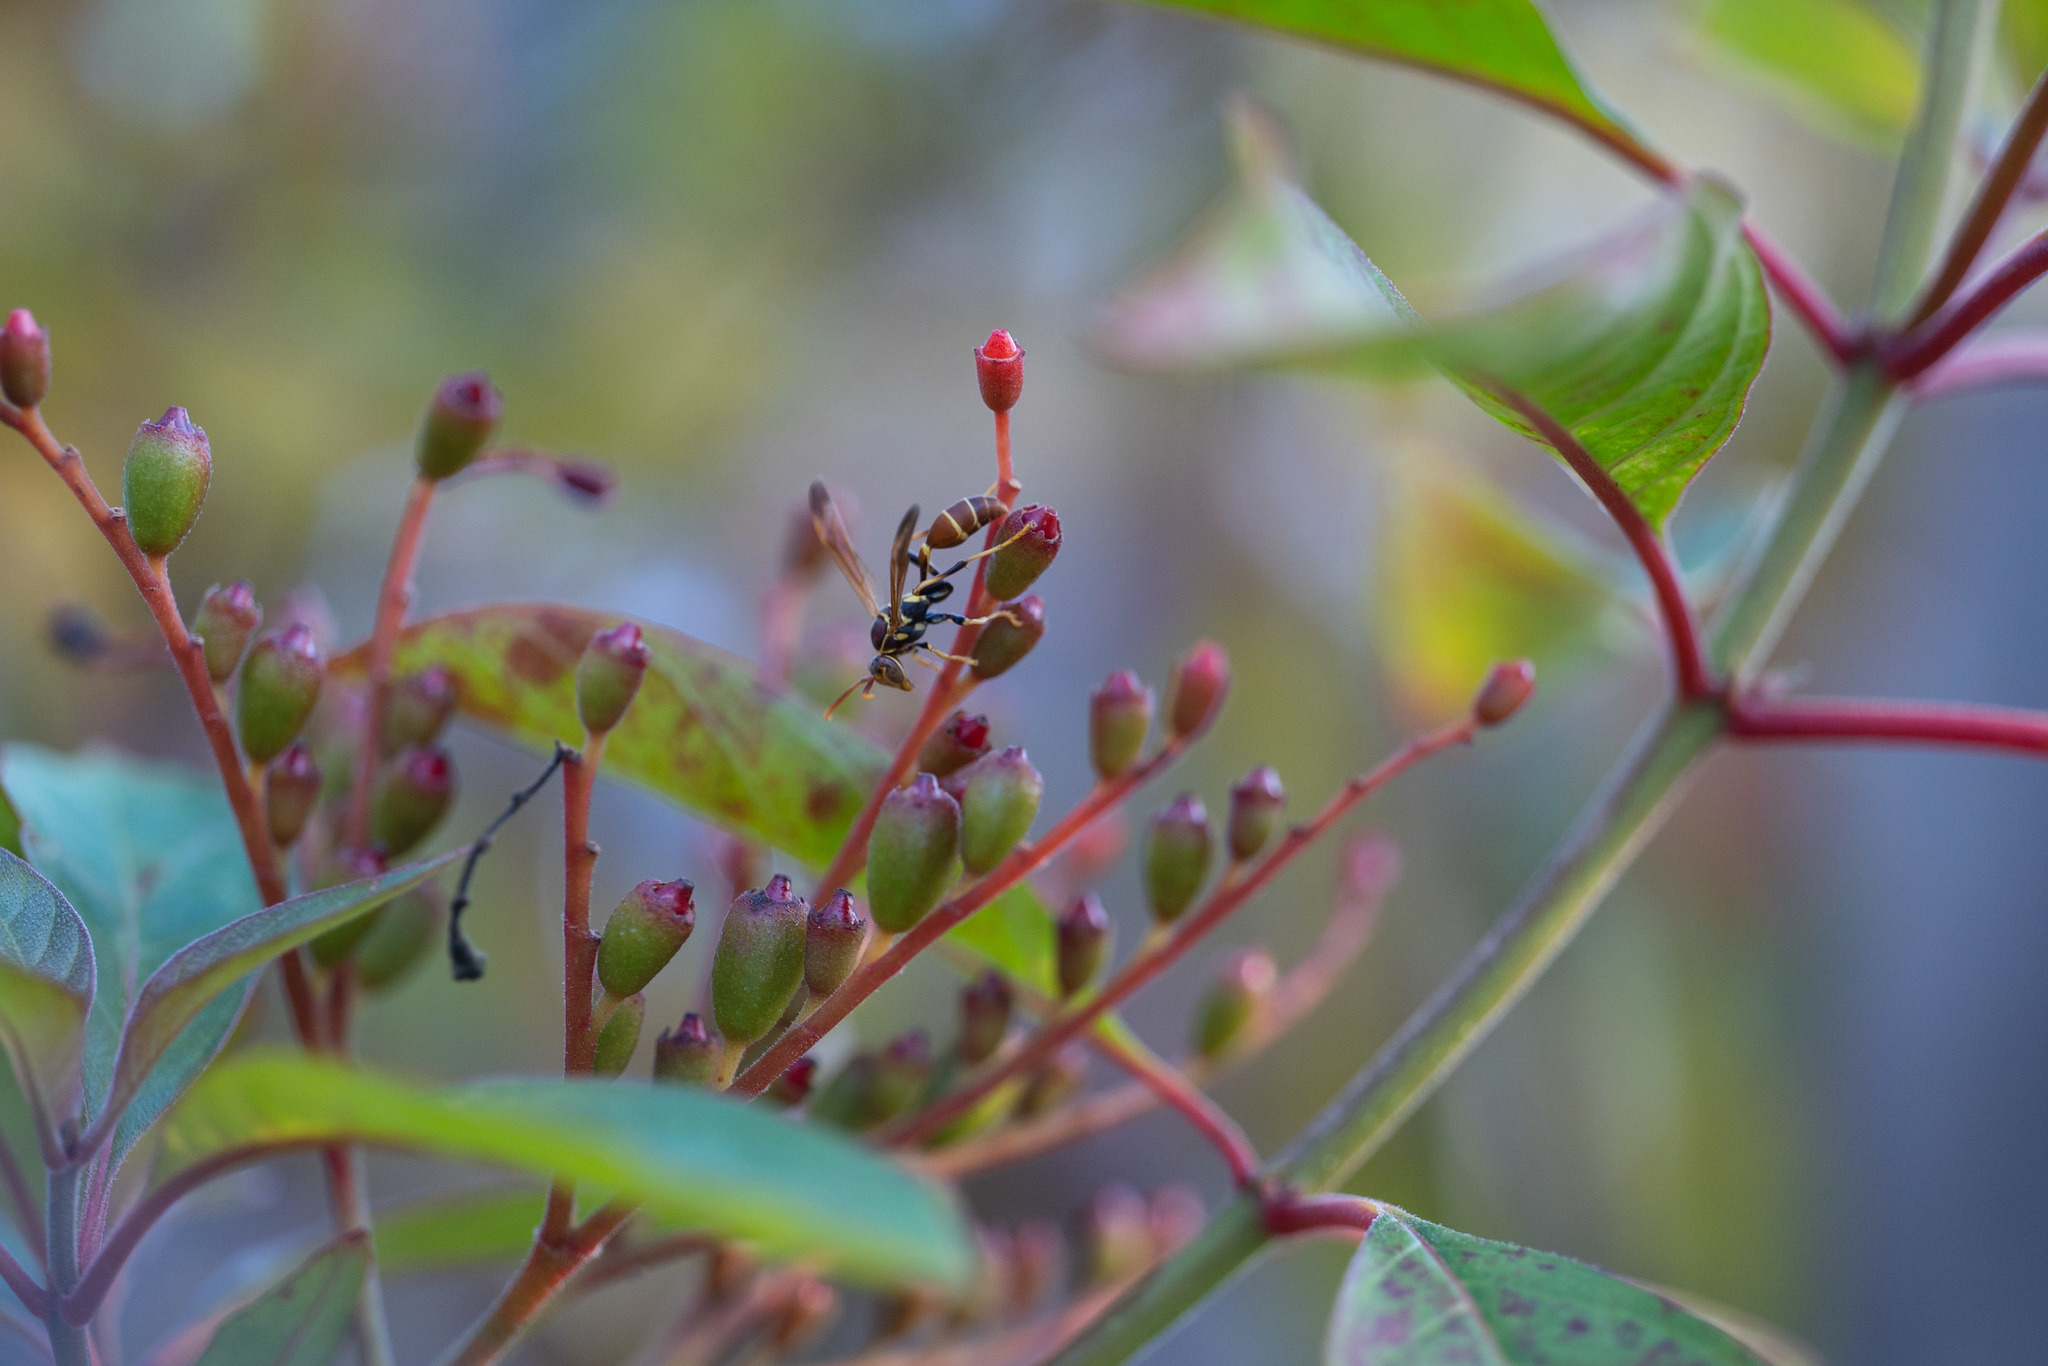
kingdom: Animalia
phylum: Arthropoda
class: Insecta
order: Hymenoptera
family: Vespidae
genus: Mischocyttarus
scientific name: Mischocyttarus mexicanus
